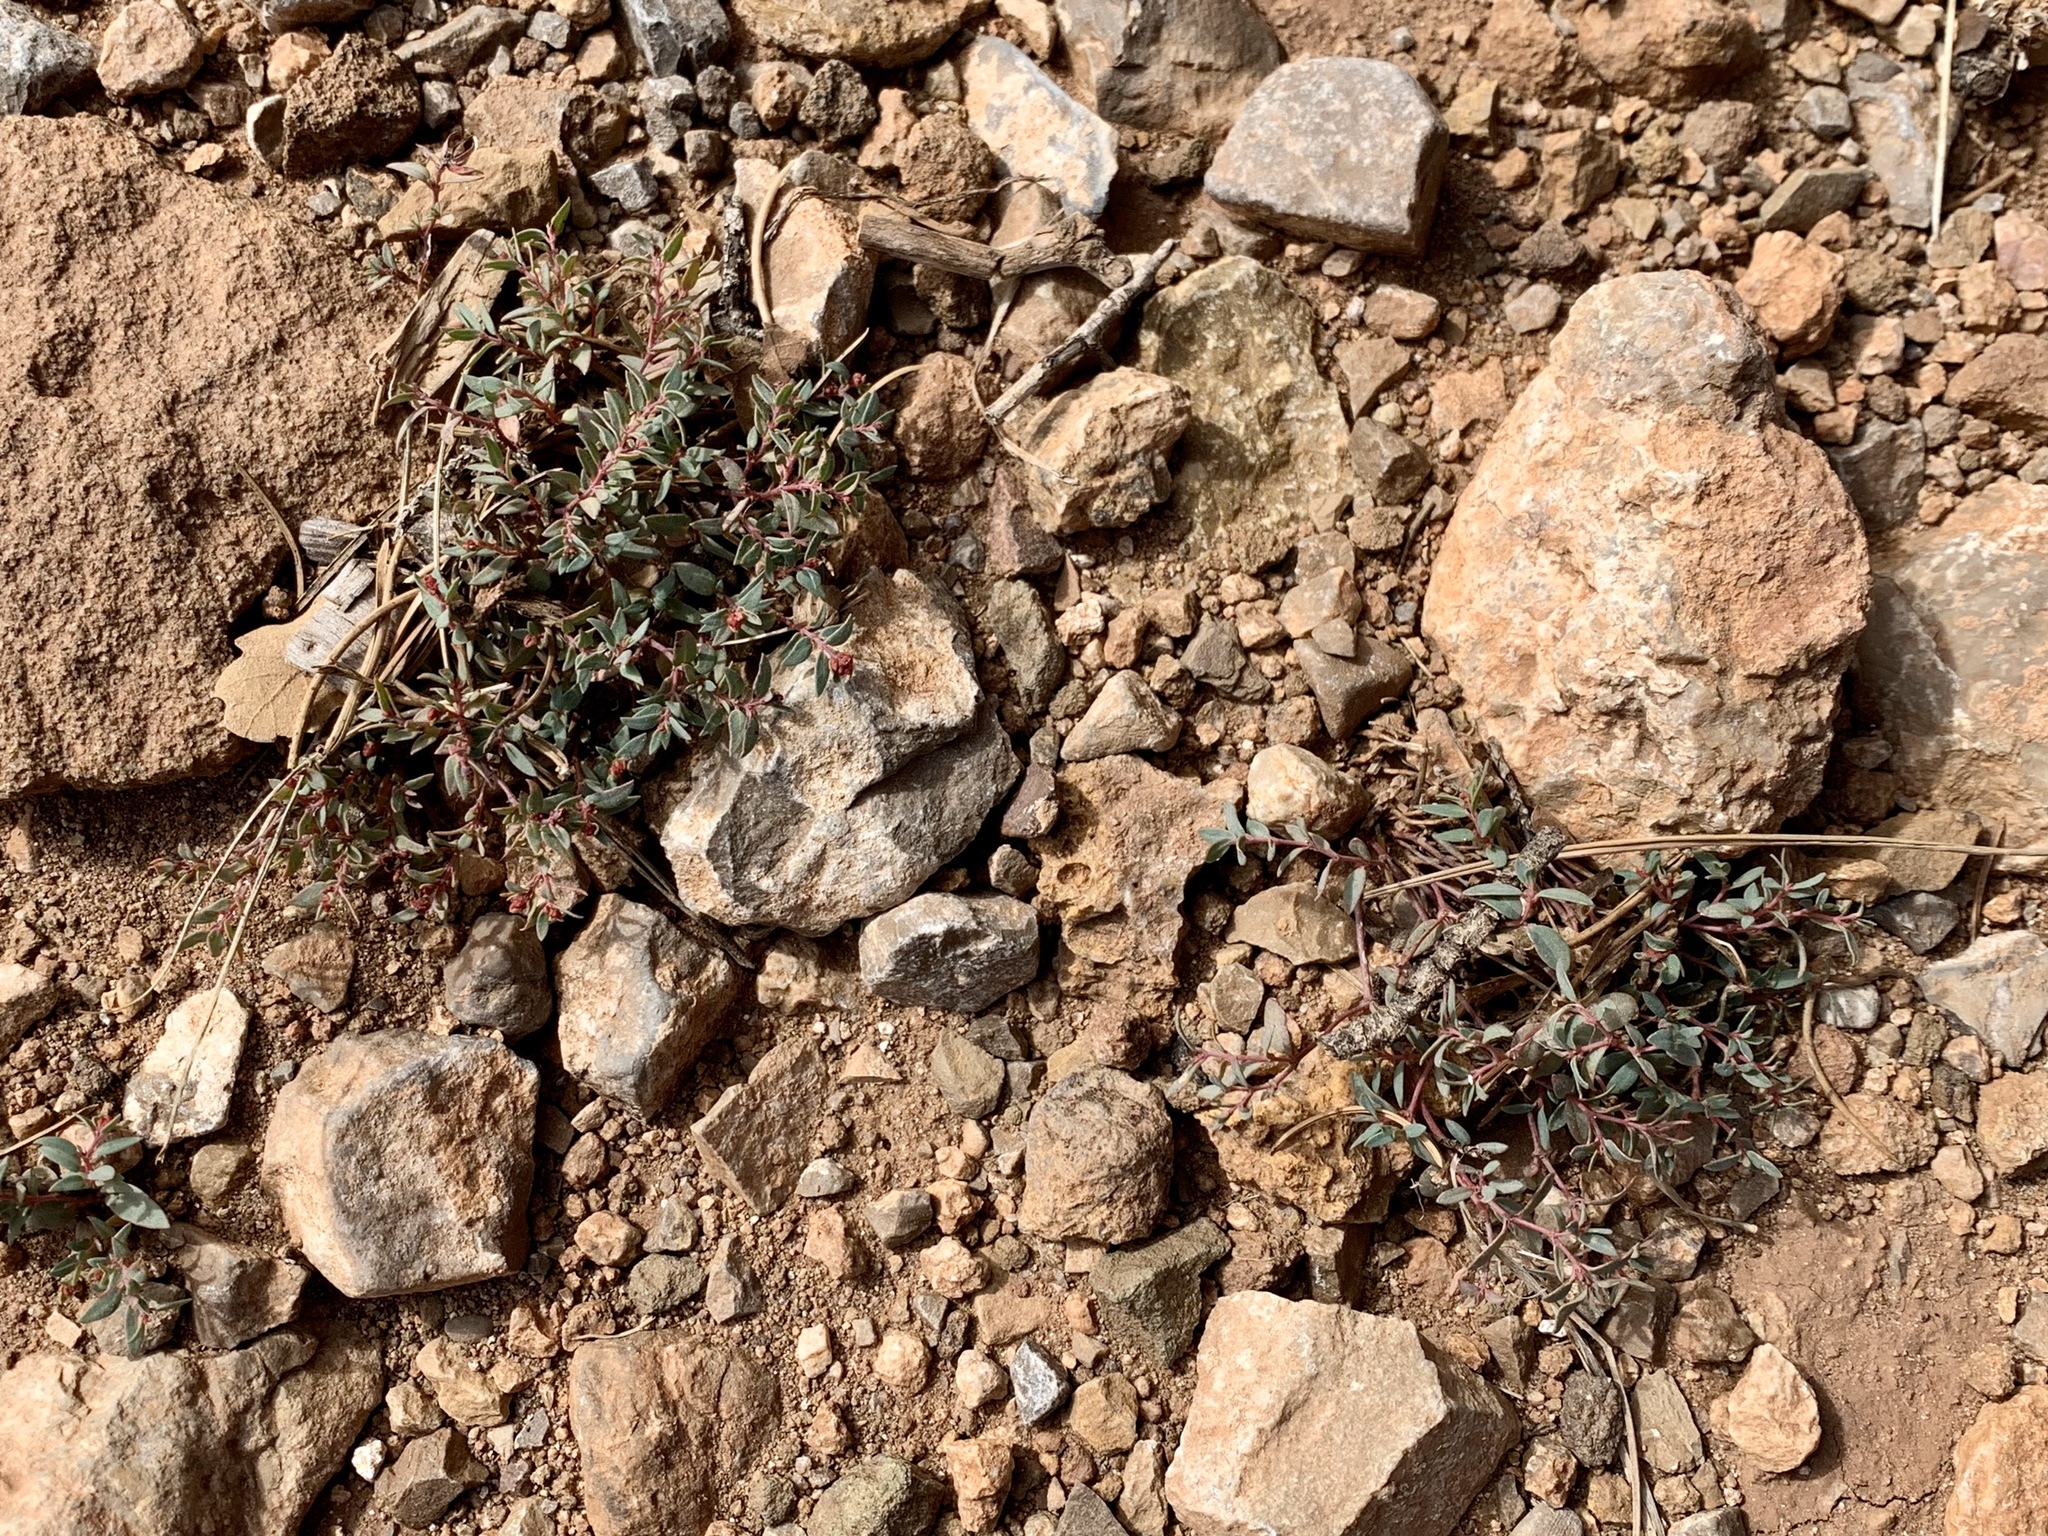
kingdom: Plantae
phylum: Tracheophyta
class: Magnoliopsida
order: Malpighiales
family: Euphorbiaceae
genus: Euphorbia
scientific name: Euphorbia chaetocalyx
